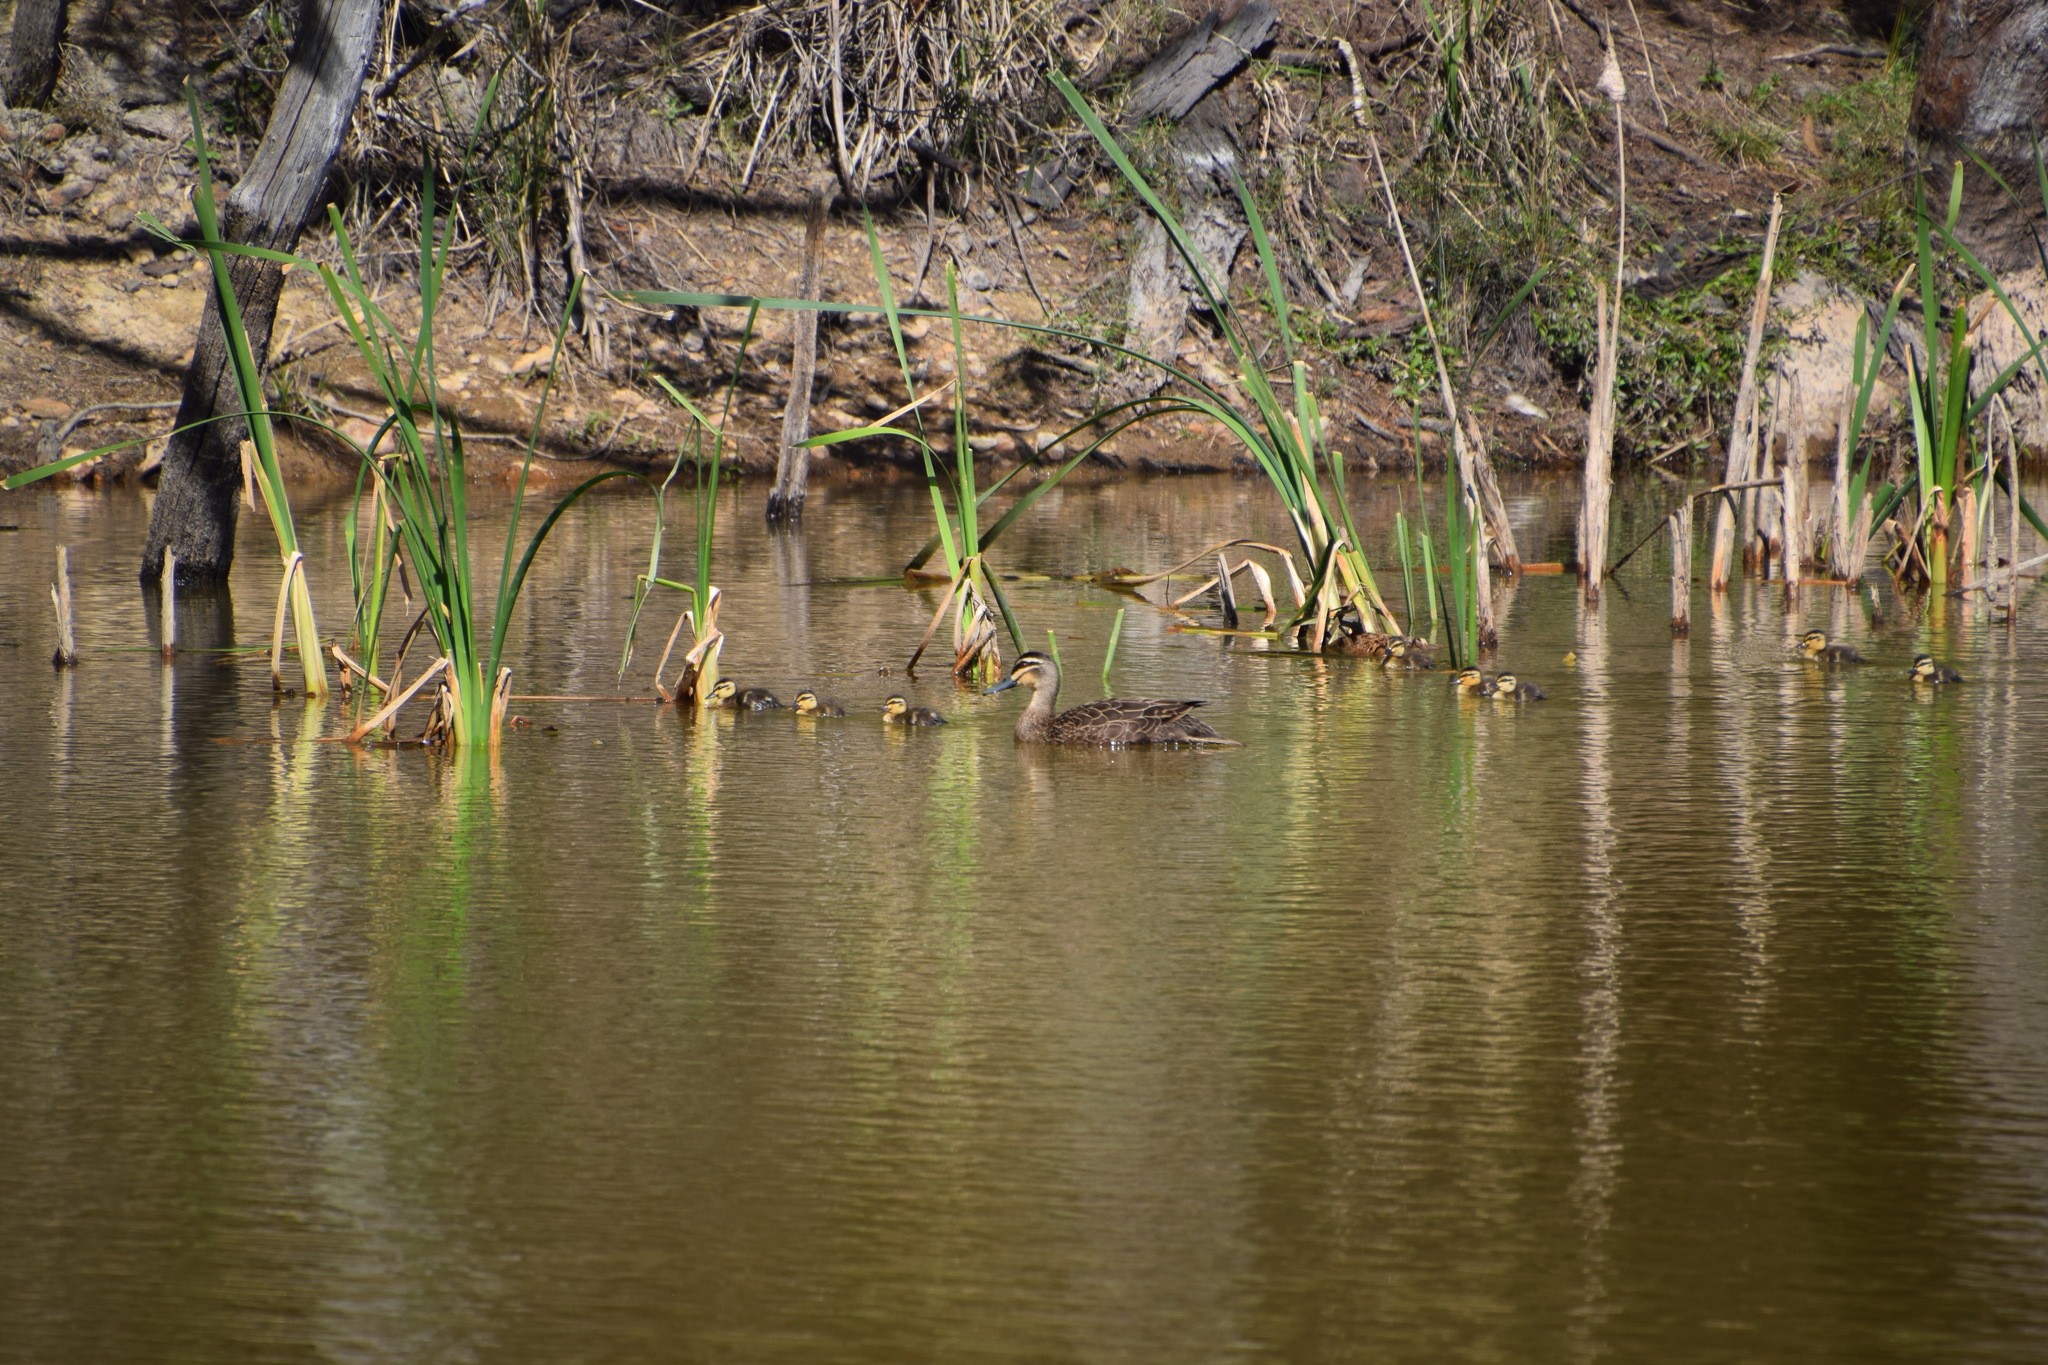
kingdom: Animalia
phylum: Chordata
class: Aves
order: Anseriformes
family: Anatidae
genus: Anas
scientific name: Anas superciliosa
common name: Pacific black duck
